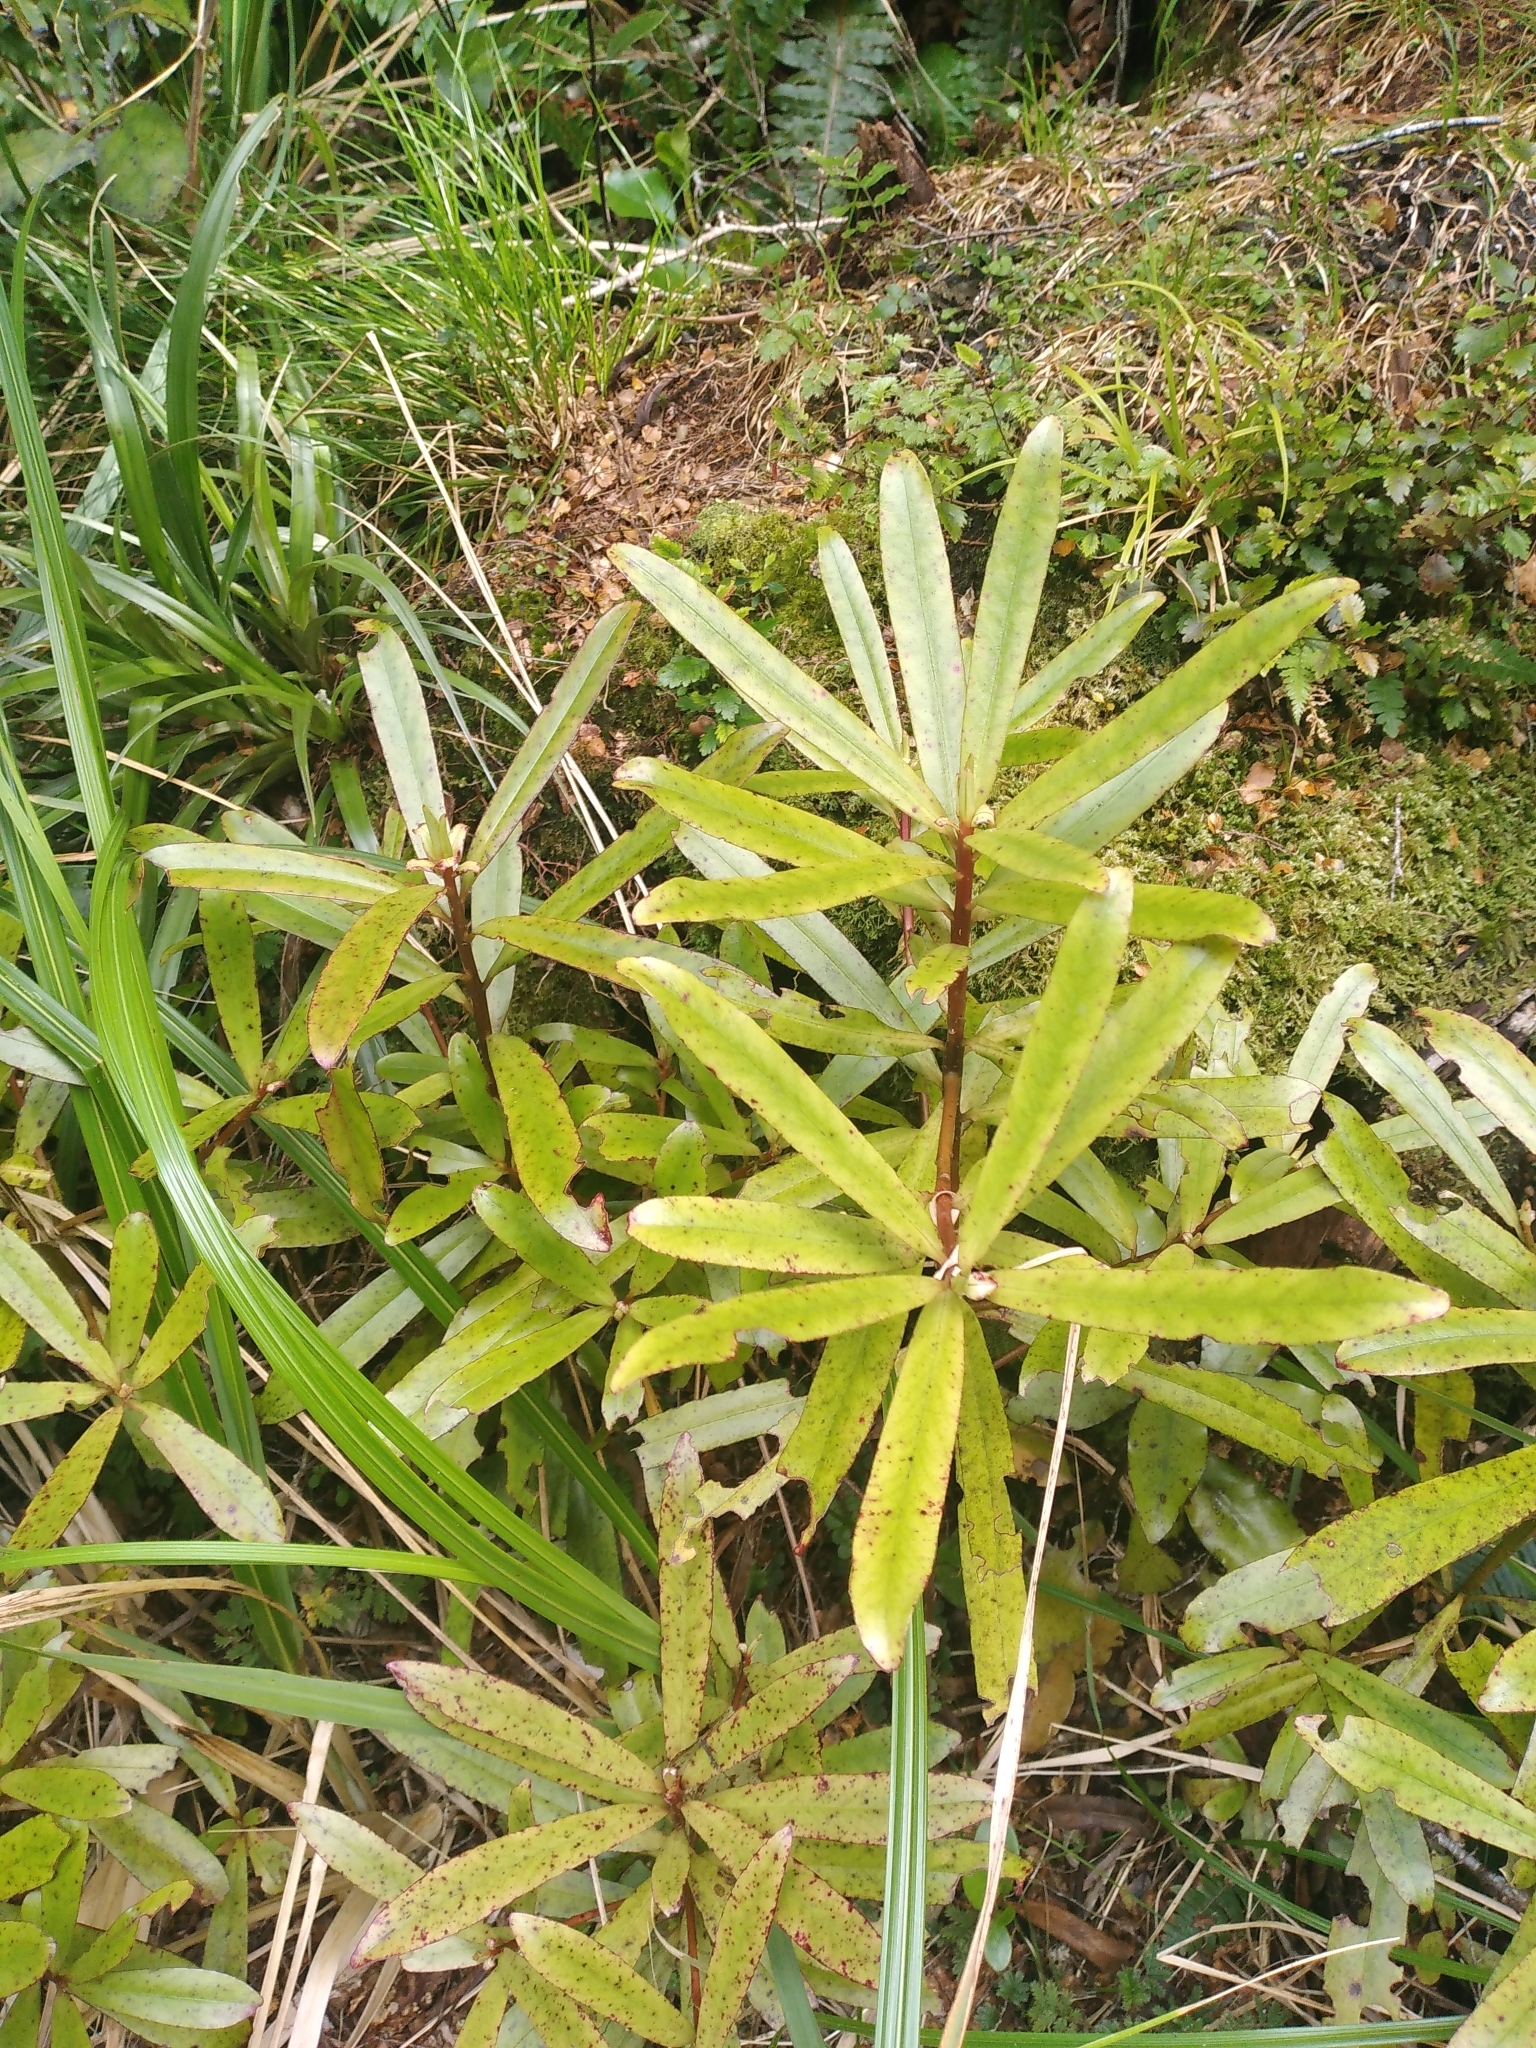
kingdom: Plantae
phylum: Tracheophyta
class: Magnoliopsida
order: Ericales
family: Primulaceae
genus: Myrsine
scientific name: Myrsine salicina
